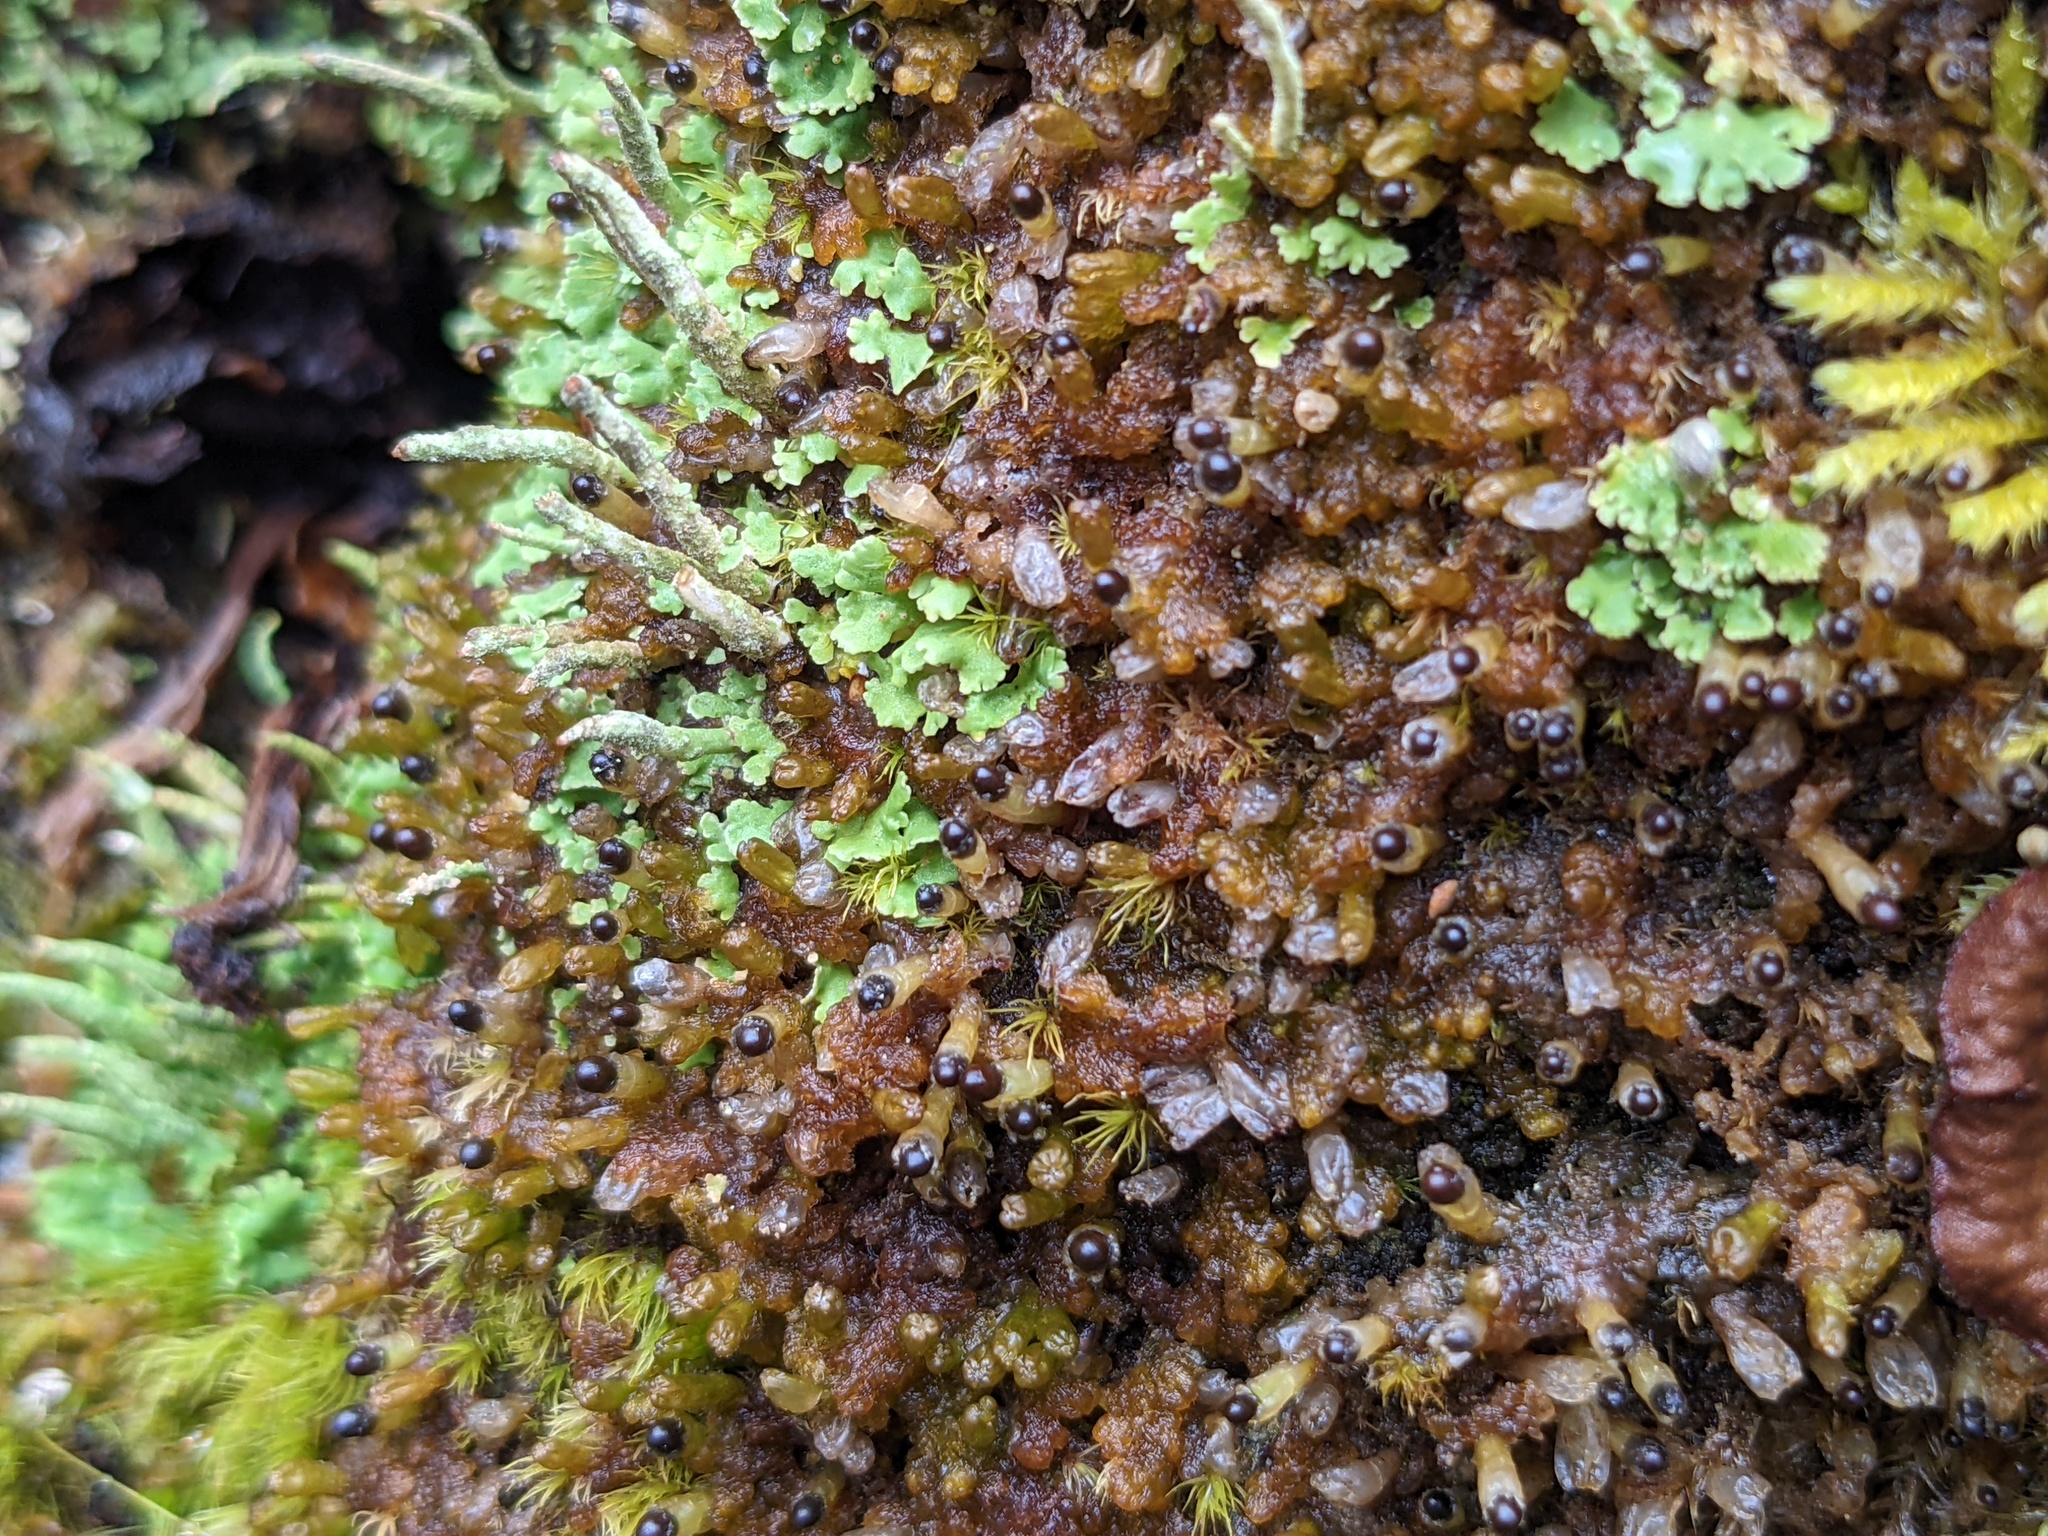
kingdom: Plantae
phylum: Marchantiophyta
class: Jungermanniopsida
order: Ptilidiales
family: Ptilidiaceae
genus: Ptilidium
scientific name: Ptilidium pulcherrimum
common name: Tree fringewort
